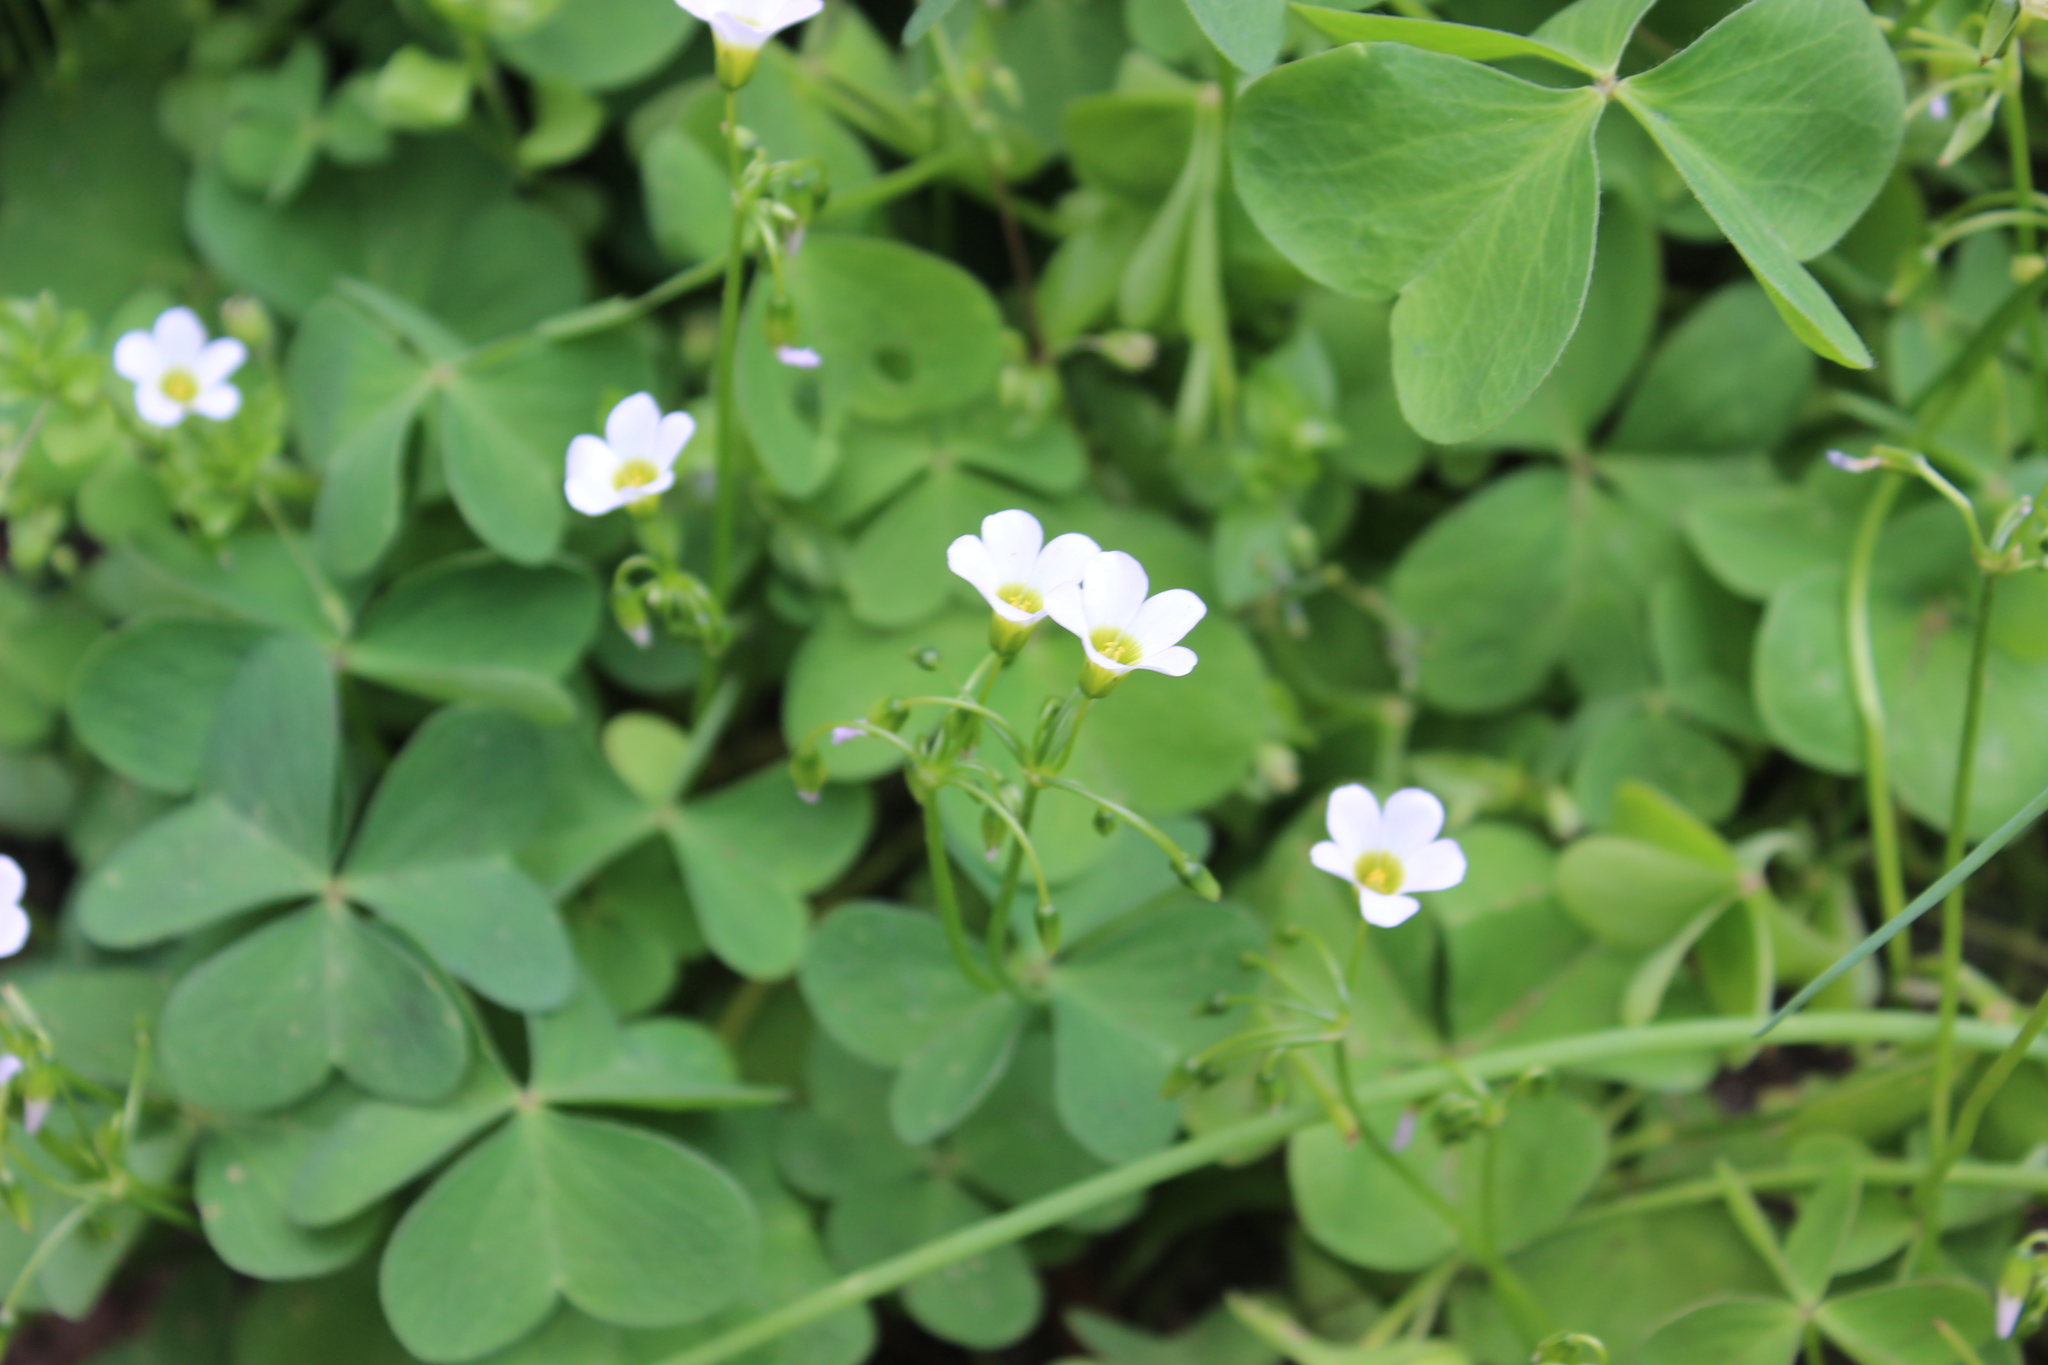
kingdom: Plantae
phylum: Tracheophyta
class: Magnoliopsida
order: Oxalidales
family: Oxalidaceae
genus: Oxalis
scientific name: Oxalis latifolia
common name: Garden pink-sorrel
